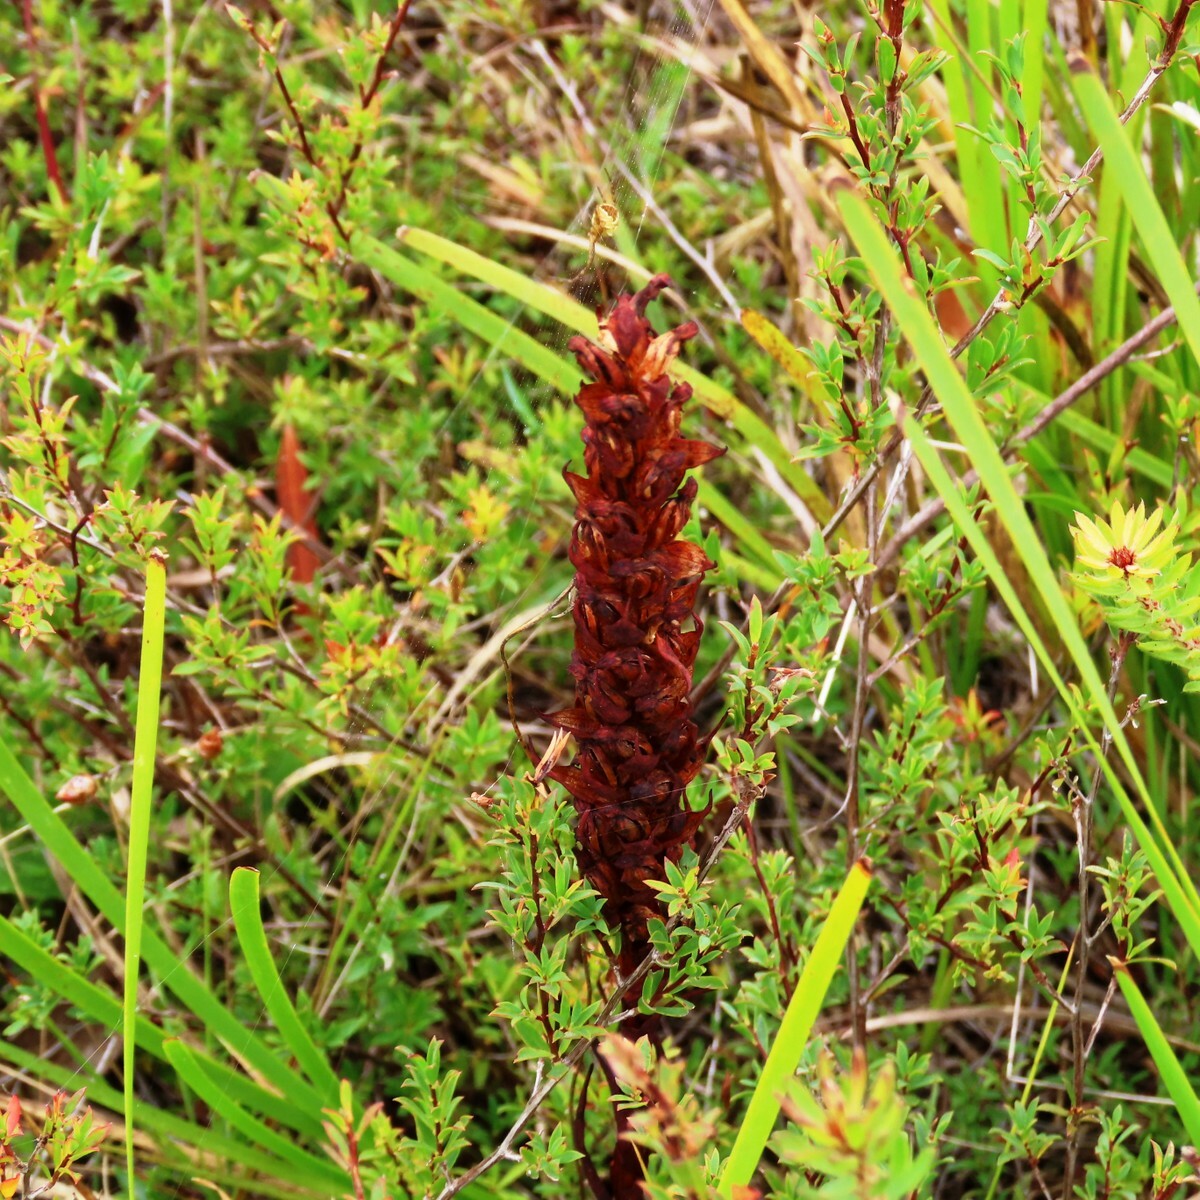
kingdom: Plantae
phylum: Tracheophyta
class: Liliopsida
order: Asparagales
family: Orchidaceae
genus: Disa
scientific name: Disa bracteata
